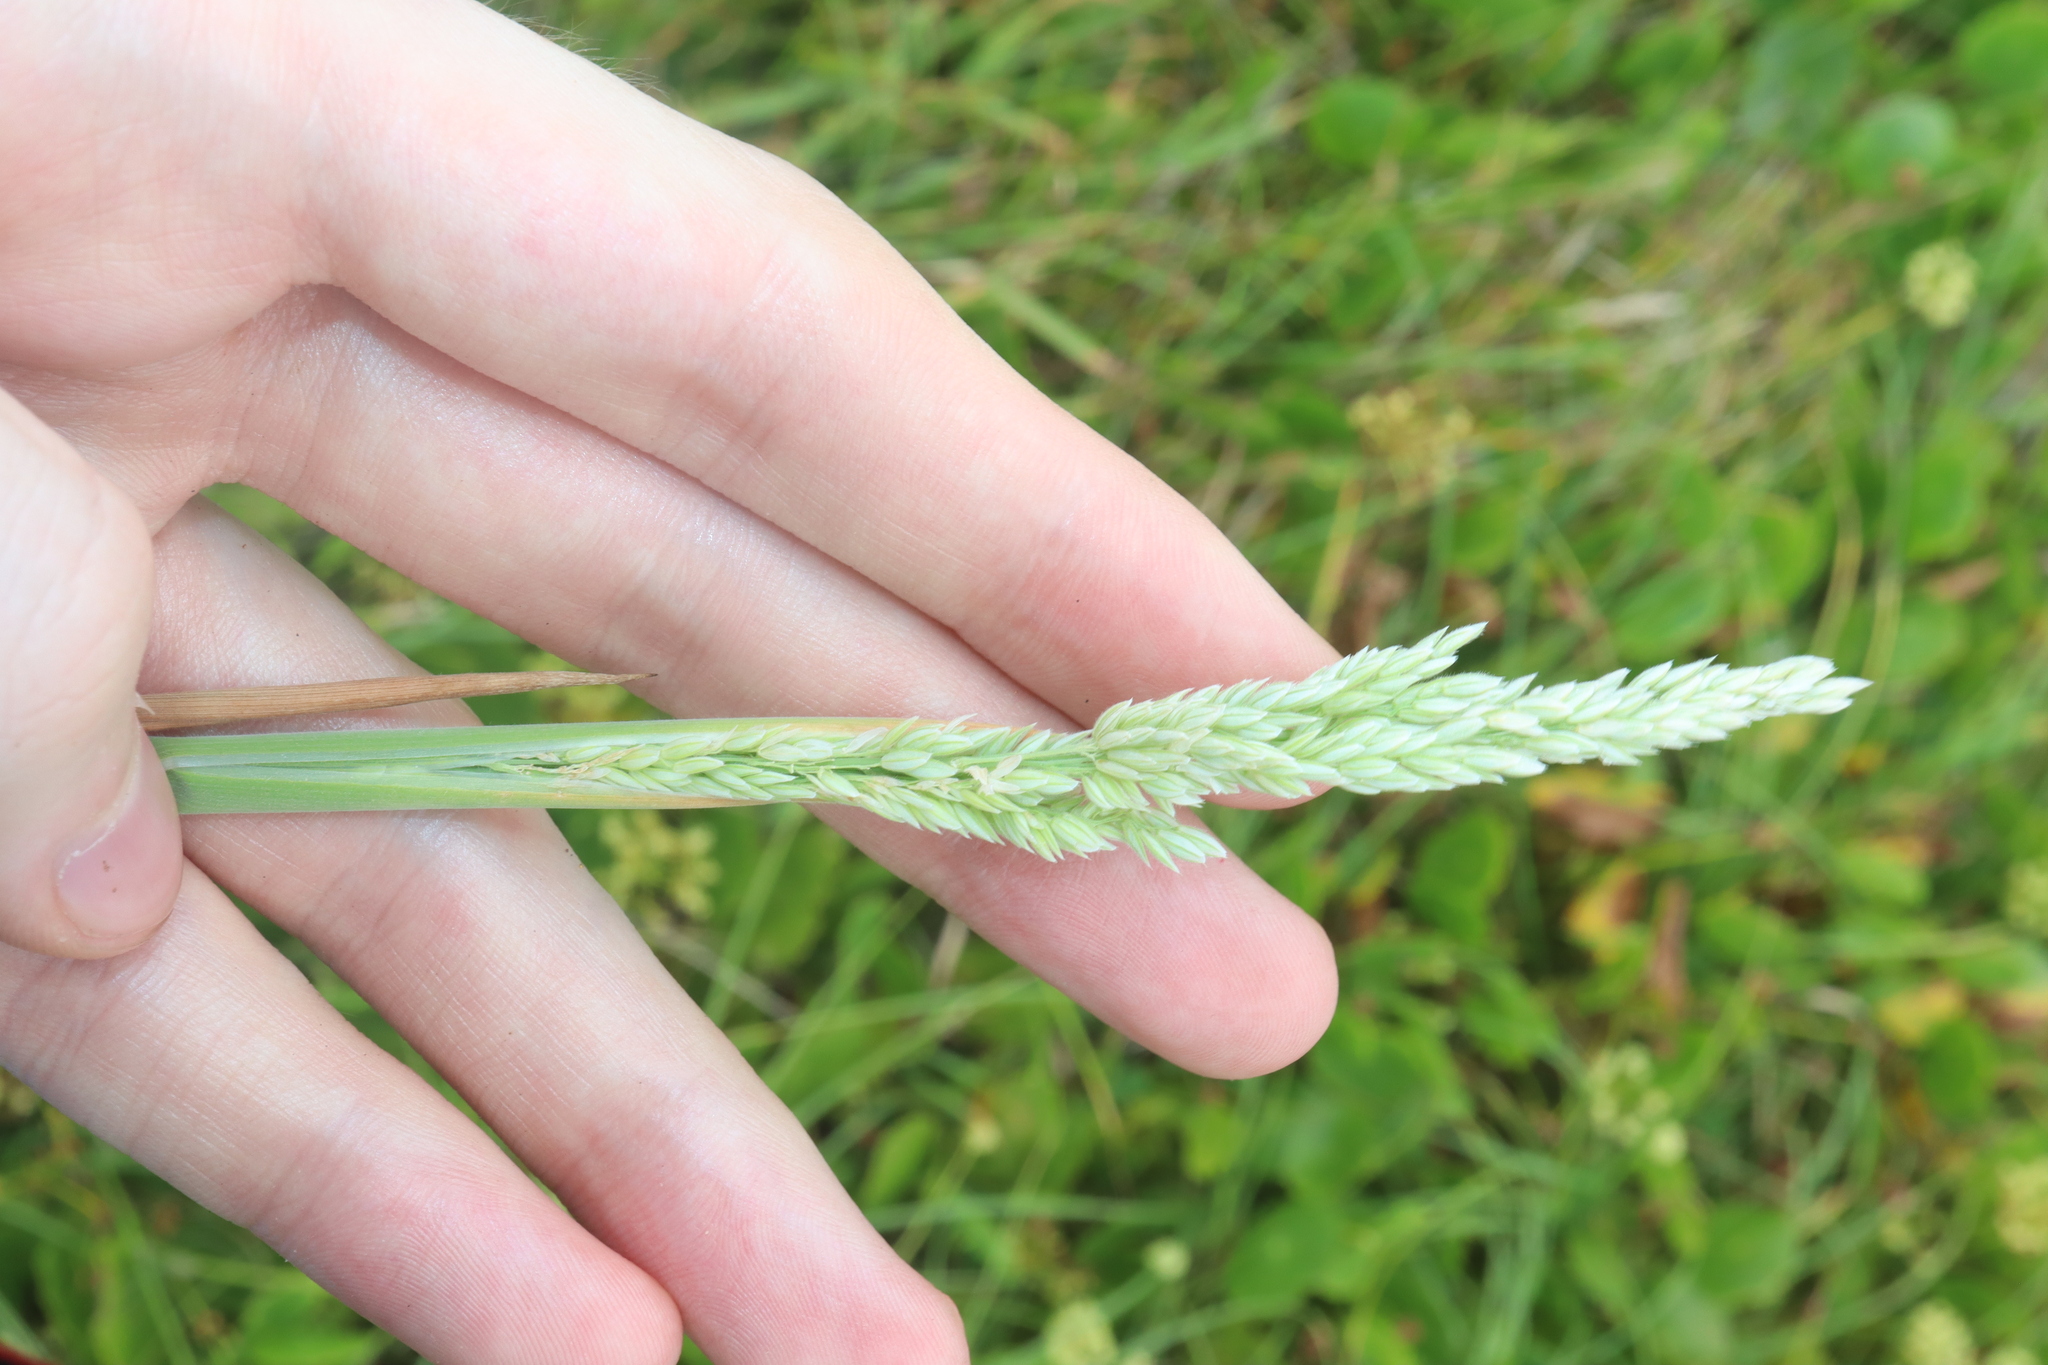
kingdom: Plantae
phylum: Tracheophyta
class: Liliopsida
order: Poales
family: Poaceae
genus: Holcus
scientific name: Holcus lanatus
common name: Yorkshire-fog
